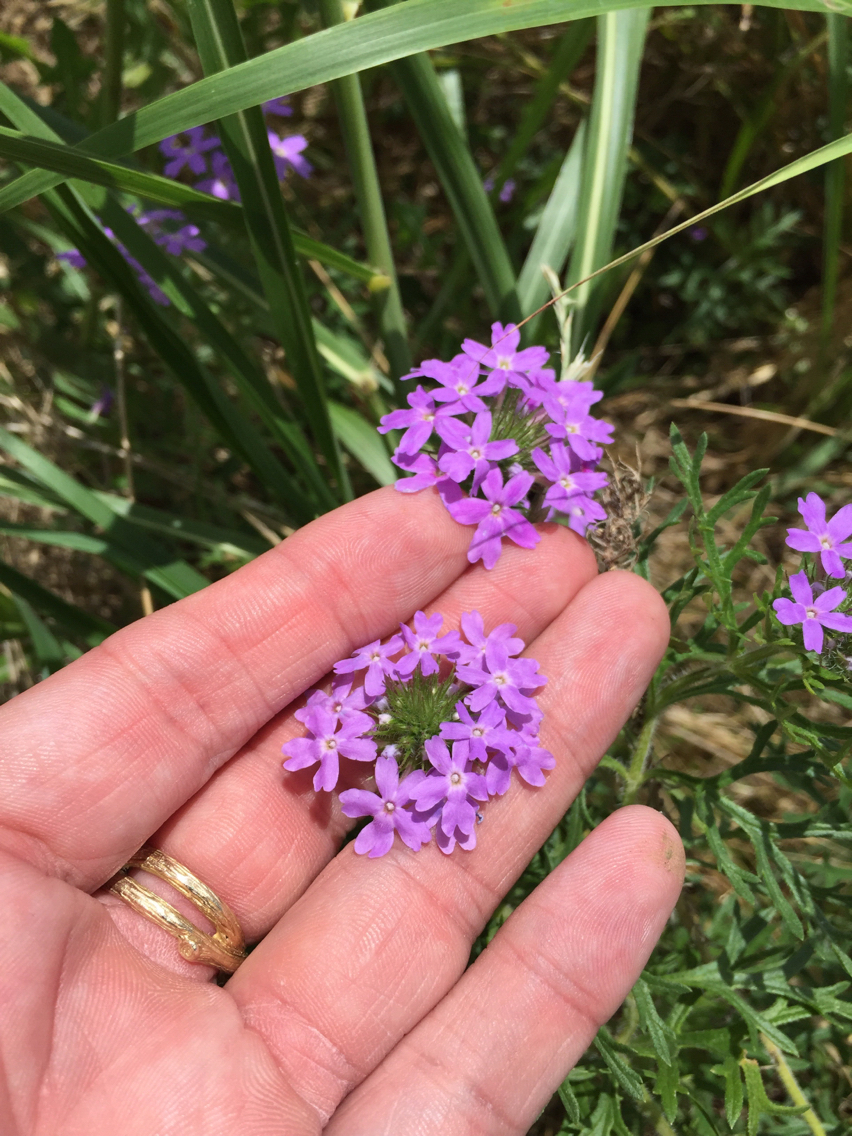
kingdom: Plantae
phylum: Tracheophyta
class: Magnoliopsida
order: Lamiales
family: Verbenaceae
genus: Verbena
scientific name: Verbena bipinnatifida
